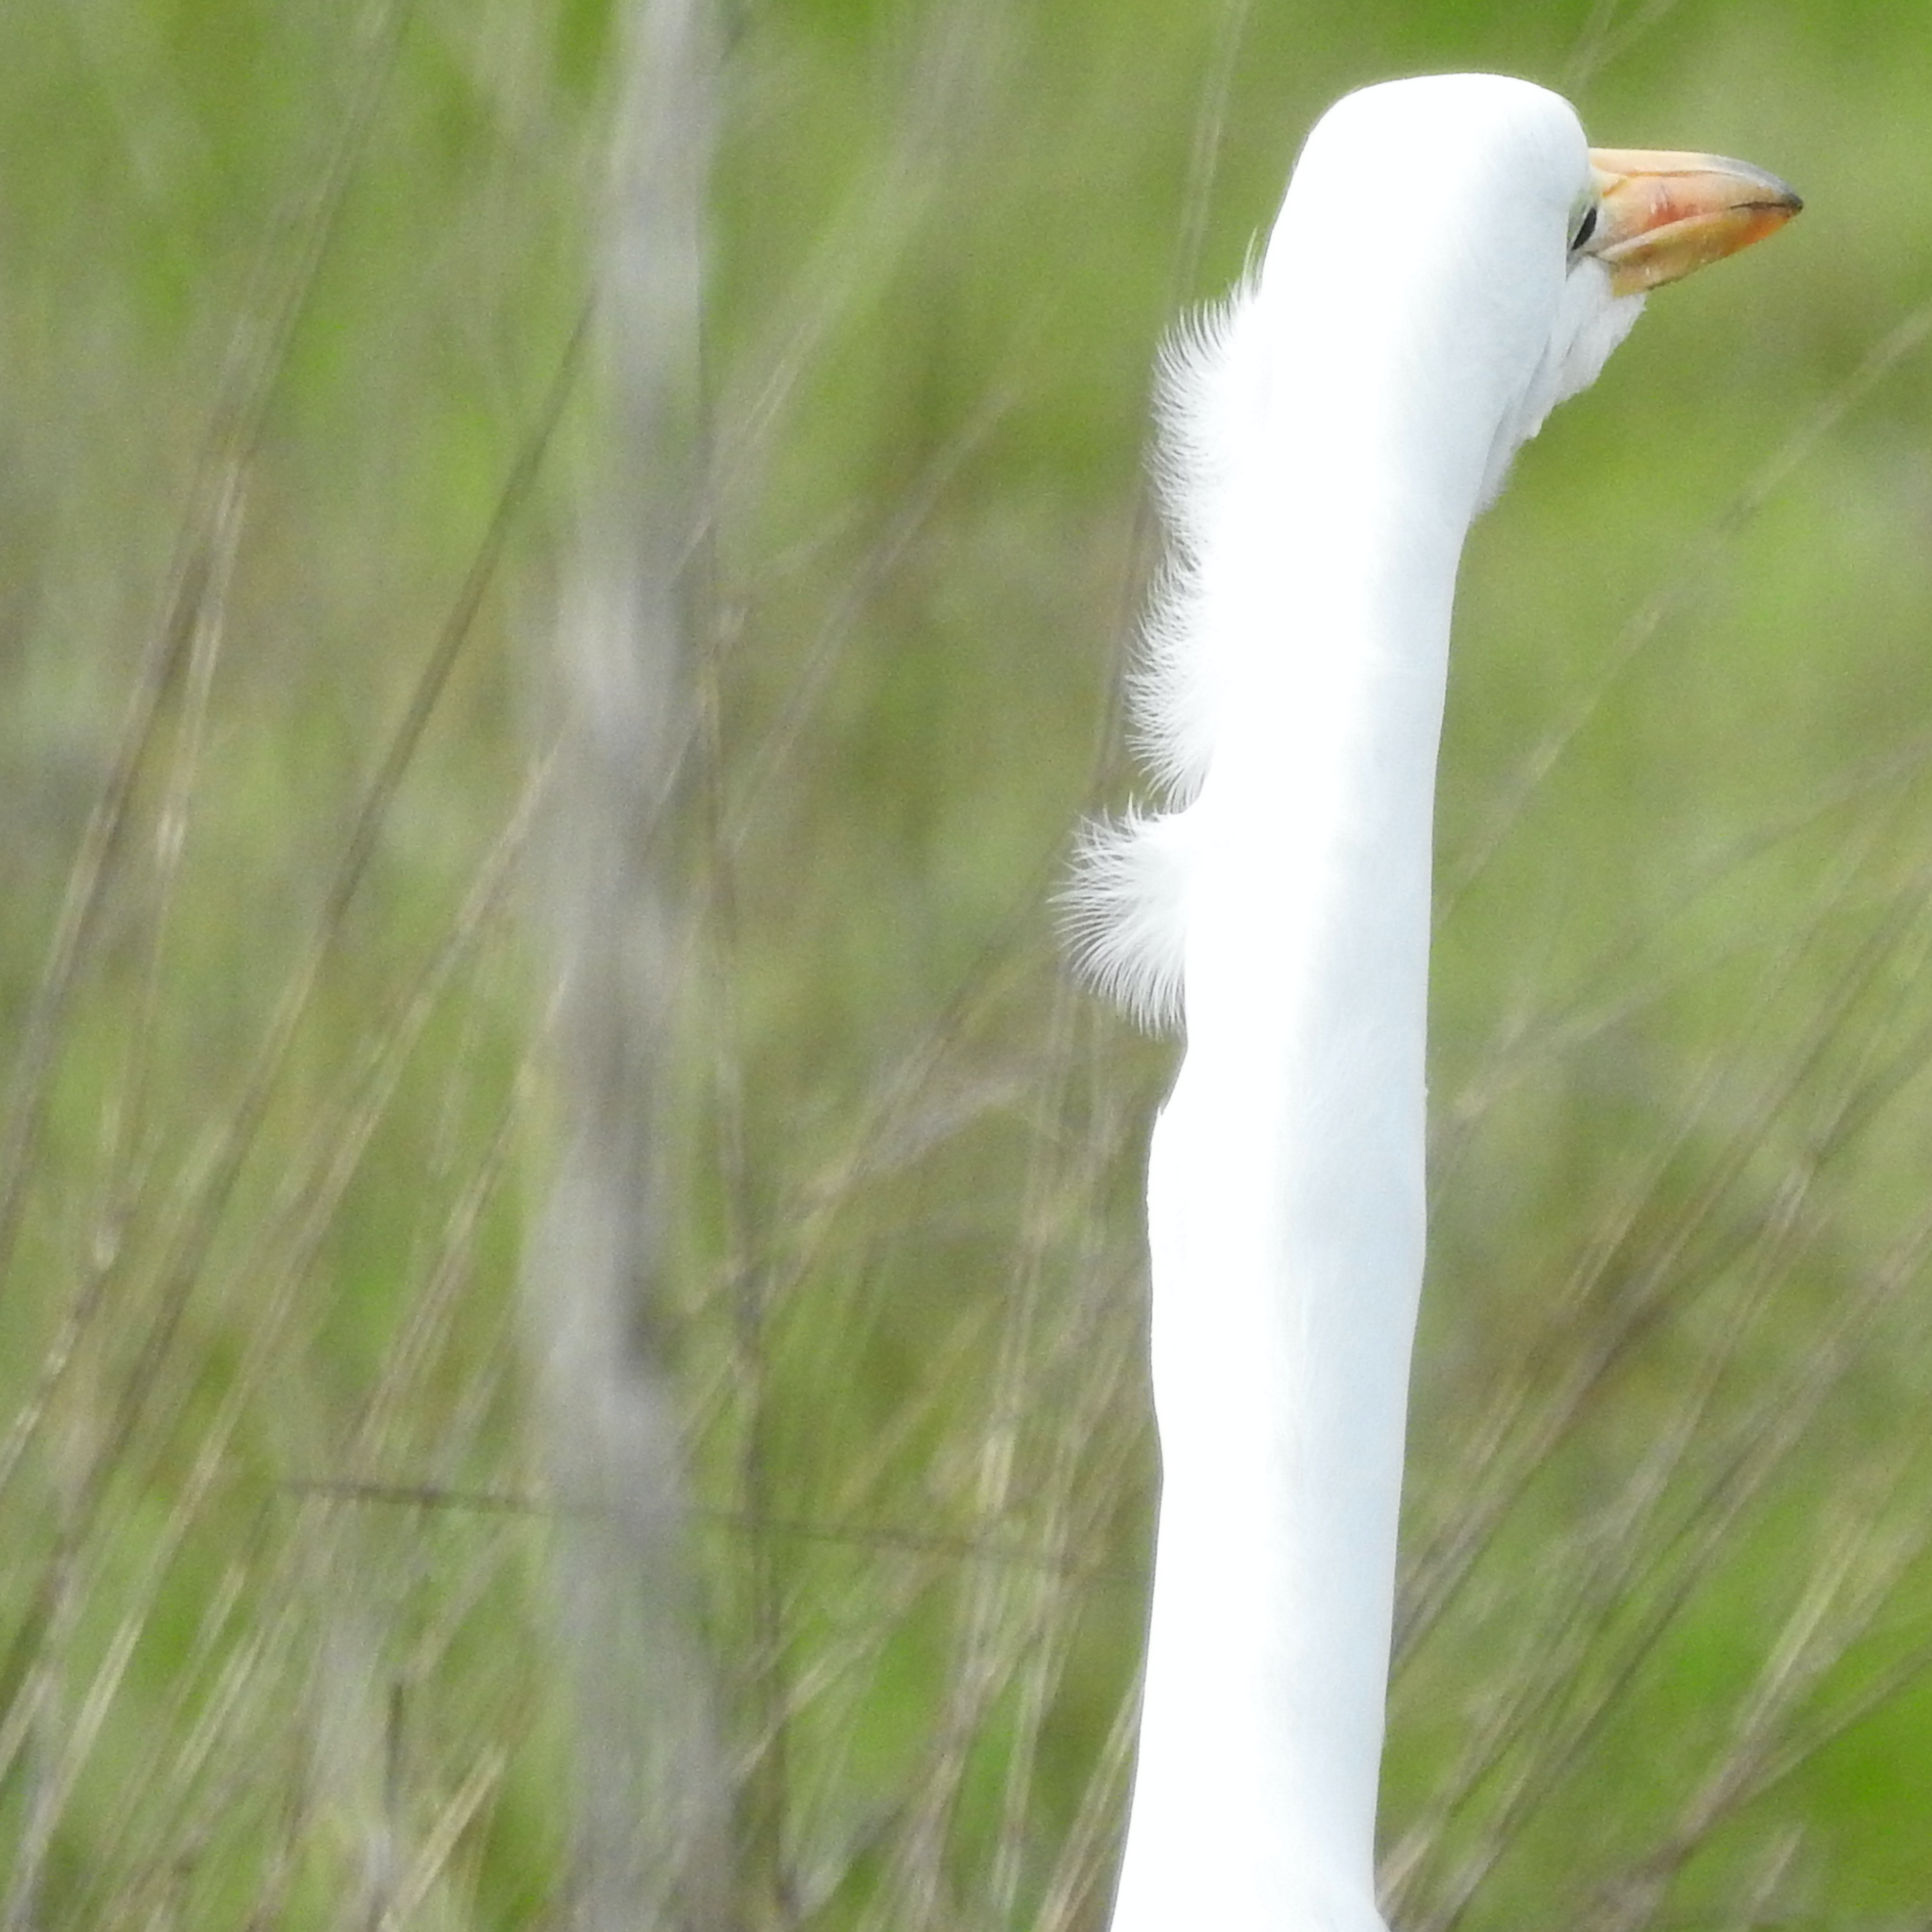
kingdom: Animalia
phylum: Chordata
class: Aves
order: Pelecaniformes
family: Ardeidae
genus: Ardea
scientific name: Ardea alba
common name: Great egret
